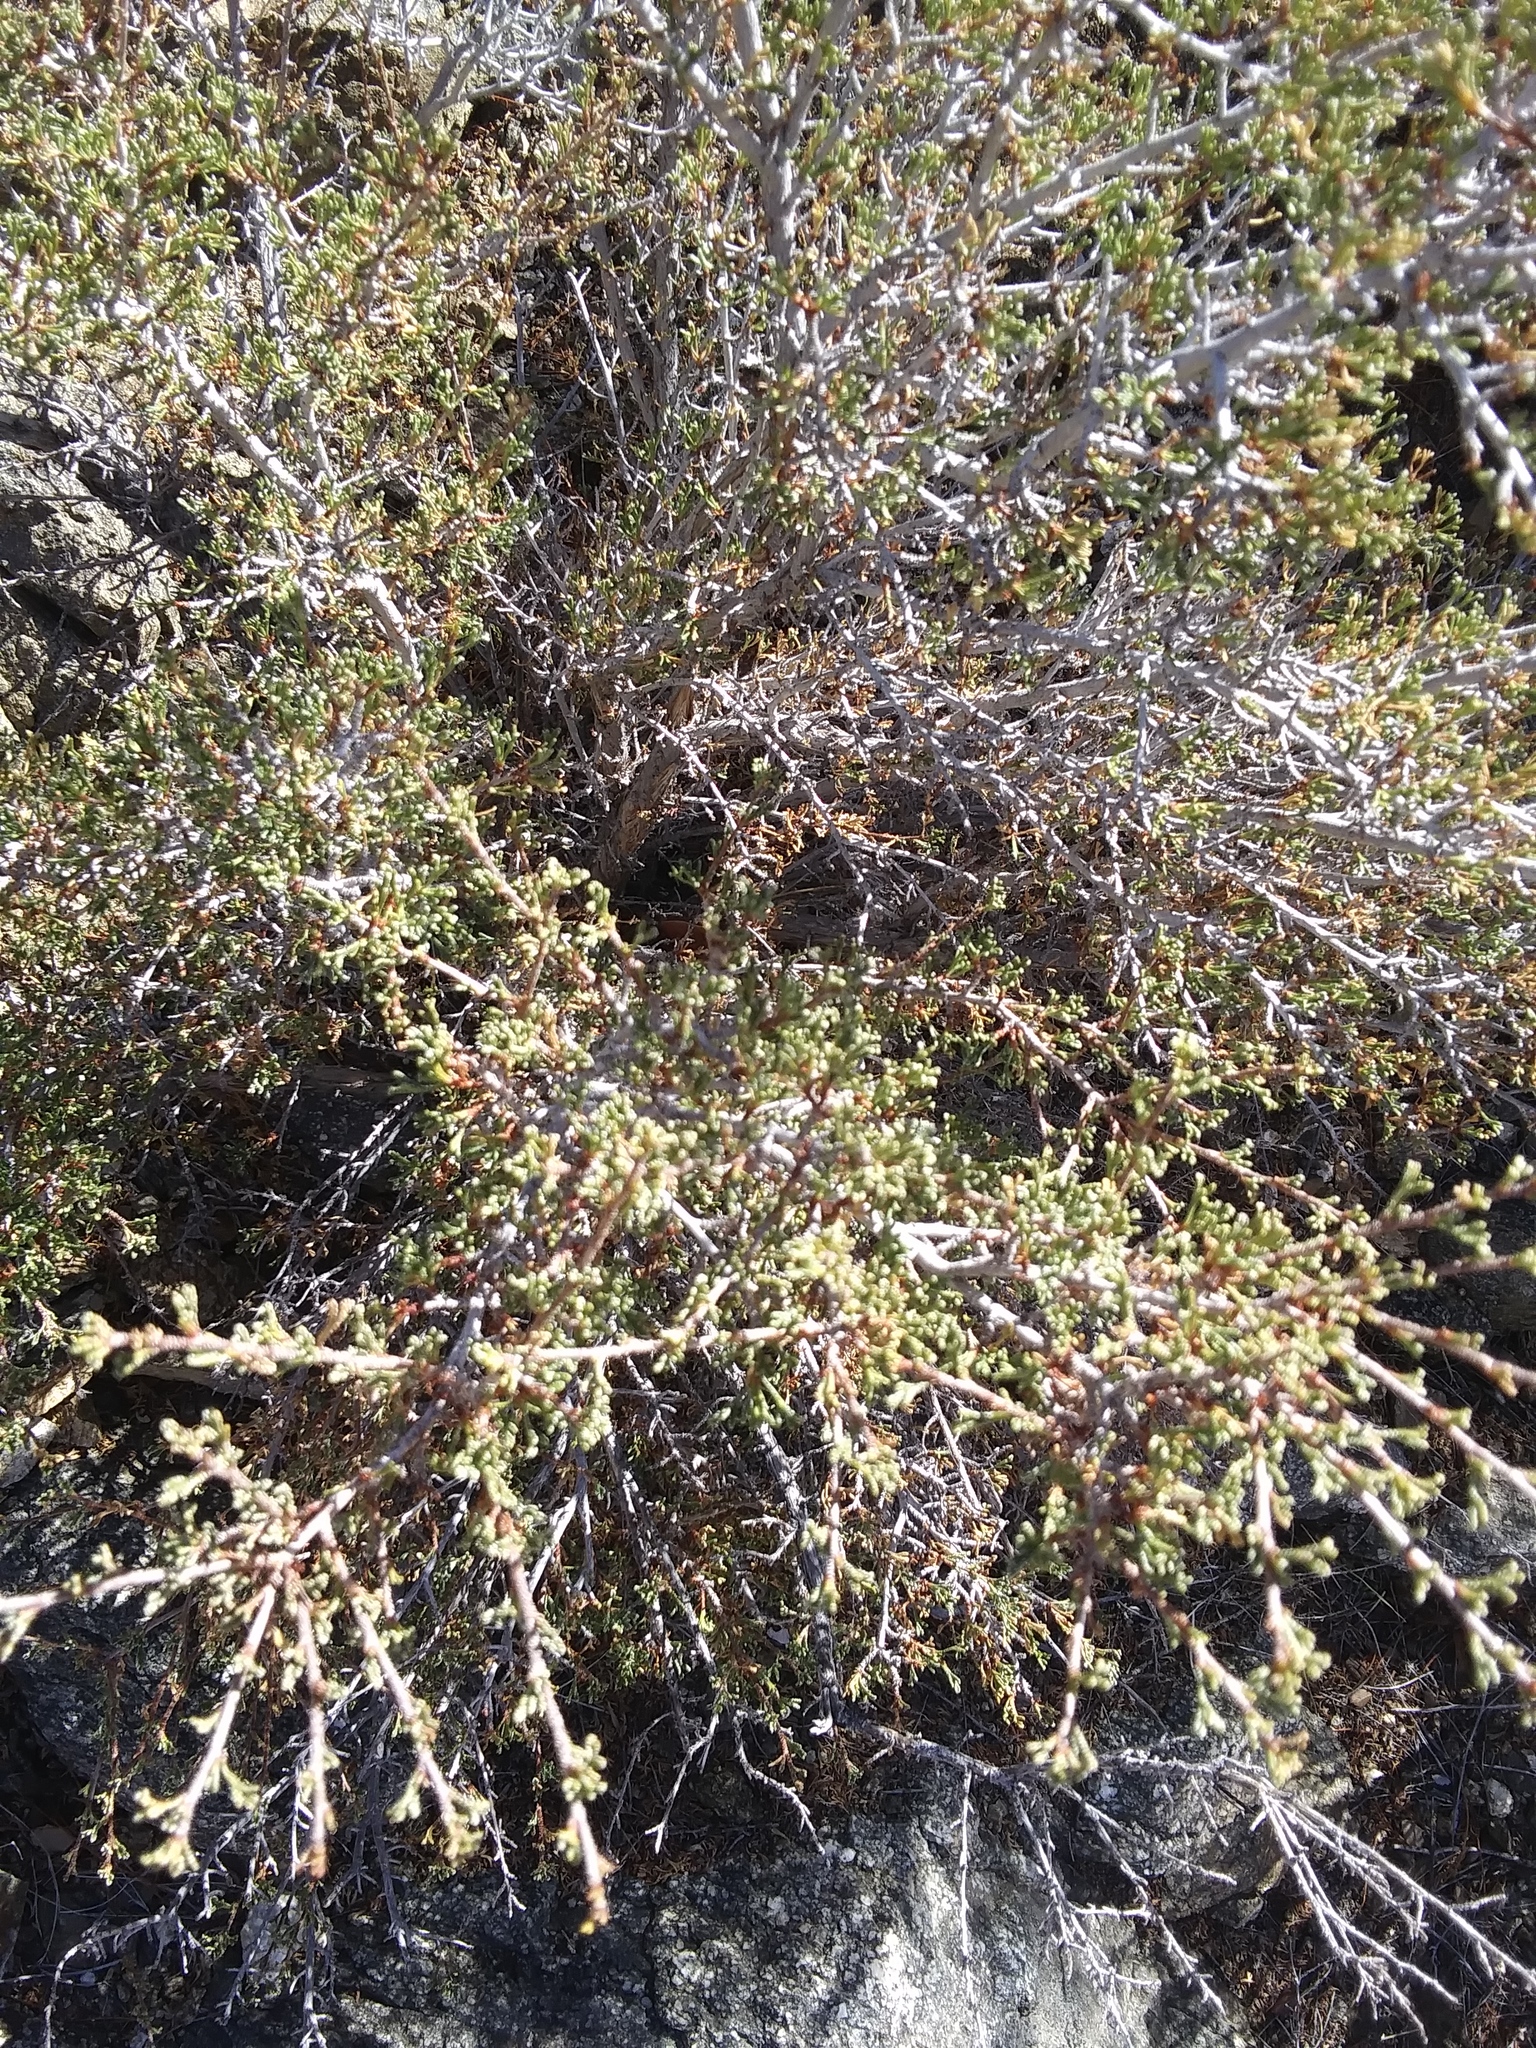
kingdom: Plantae
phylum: Tracheophyta
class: Magnoliopsida
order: Rosales
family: Rosaceae
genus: Purshia
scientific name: Purshia glandulosa
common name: Desert bitterbrush
